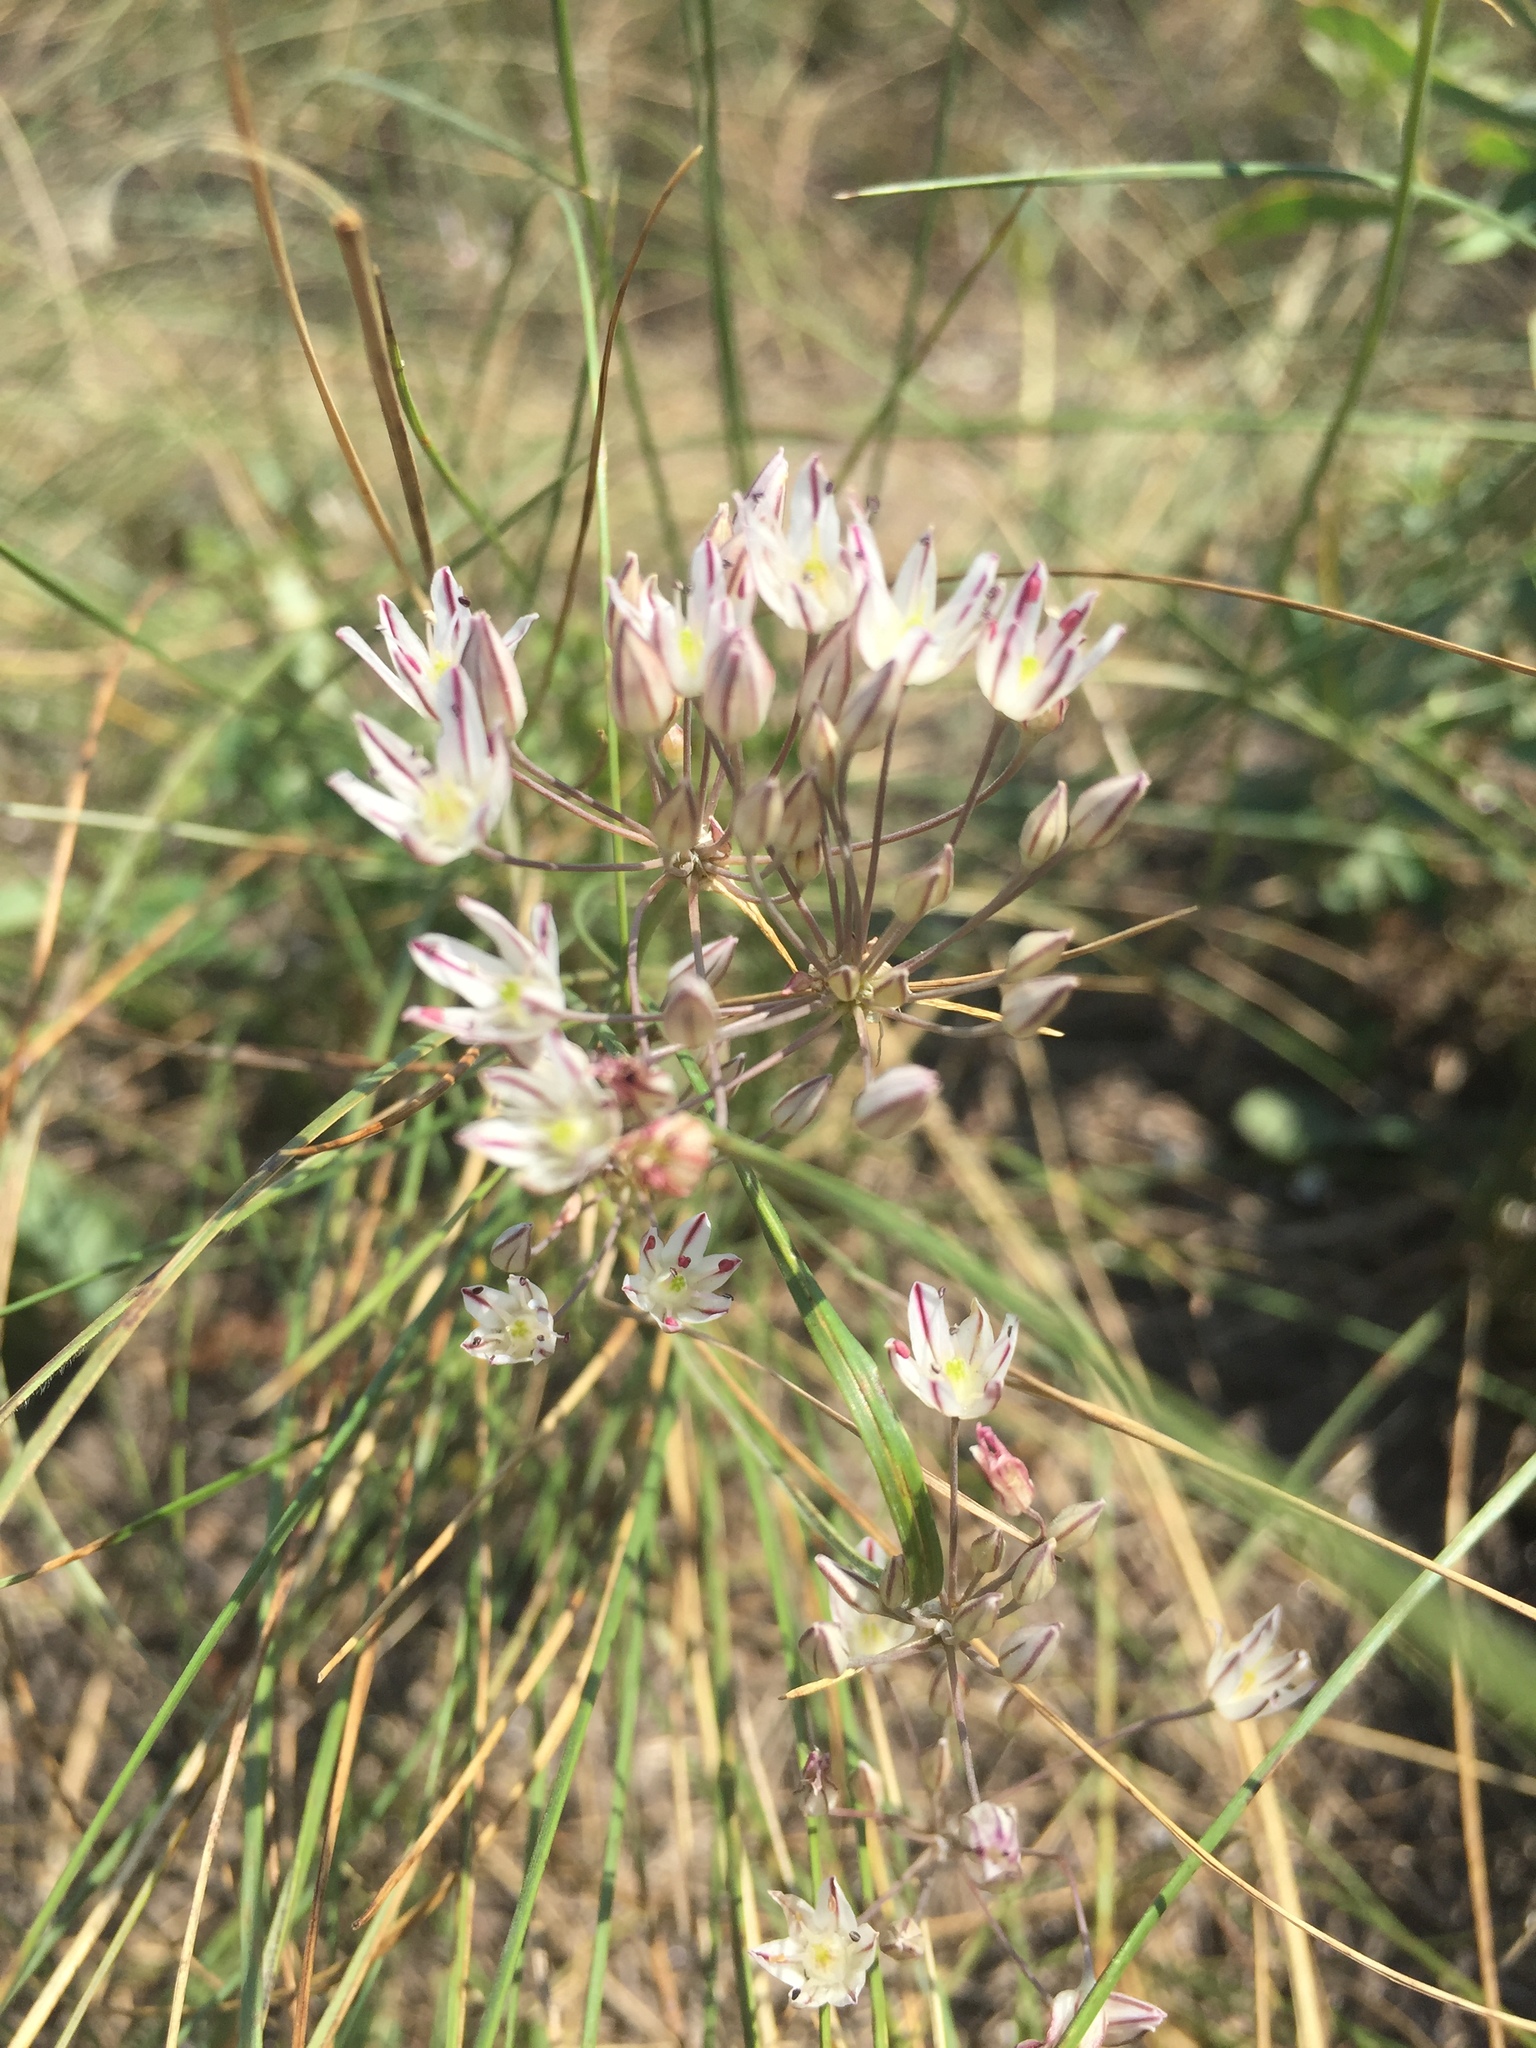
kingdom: Plantae
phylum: Tracheophyta
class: Liliopsida
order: Asparagales
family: Amaryllidaceae
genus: Allium
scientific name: Allium inaequale
